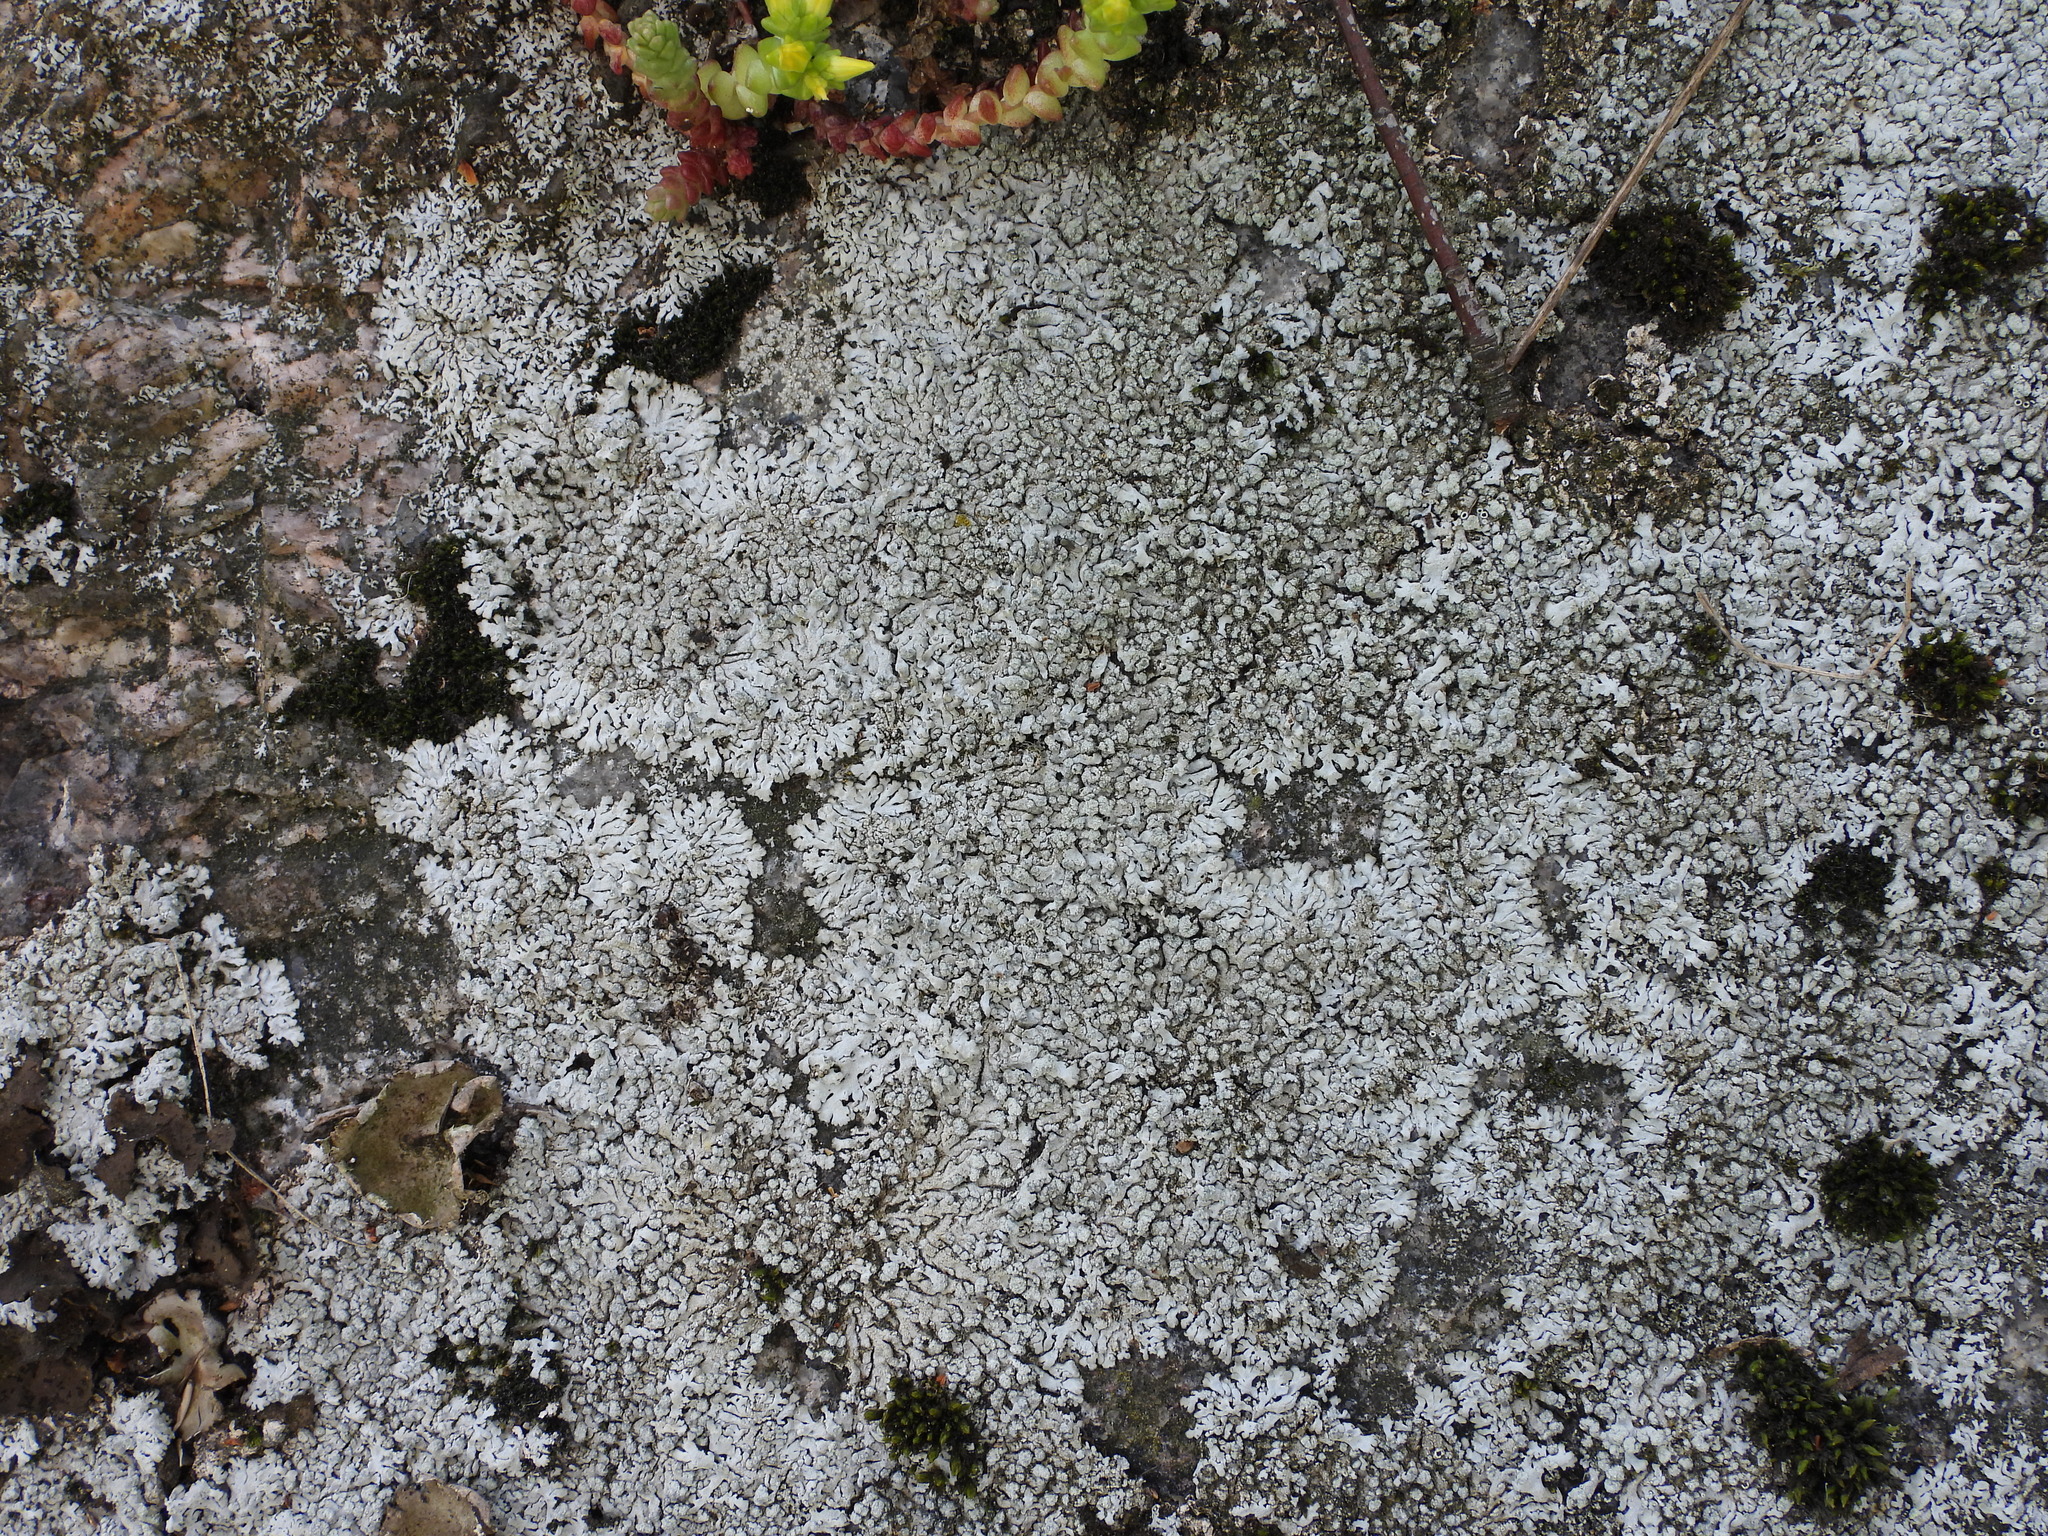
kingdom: Fungi
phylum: Ascomycota
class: Lecanoromycetes
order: Caliciales
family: Physciaceae
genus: Physcia
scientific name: Physcia caesia
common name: Blue-gray rosette lichen
